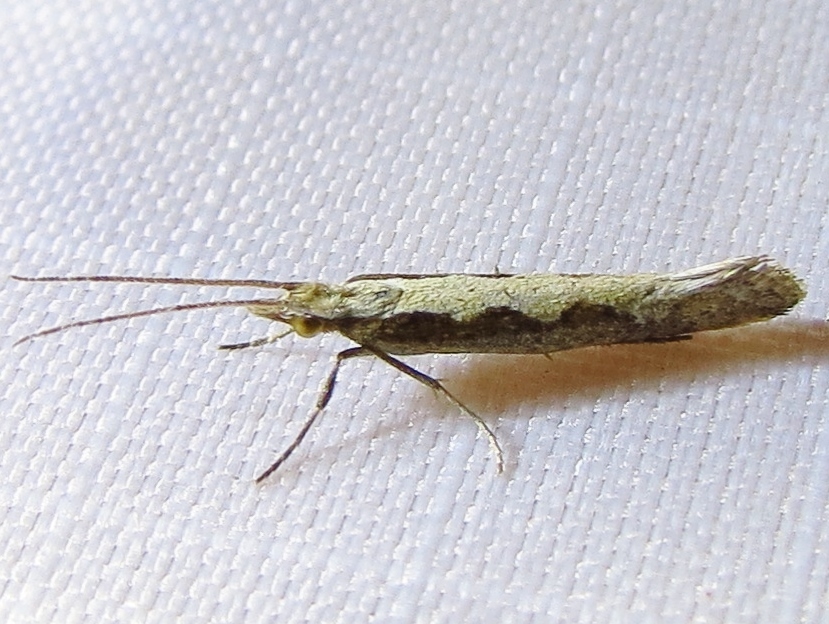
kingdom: Animalia
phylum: Arthropoda
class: Insecta
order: Lepidoptera
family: Plutellidae
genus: Plutella
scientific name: Plutella xylostella
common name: Diamond-back moth
